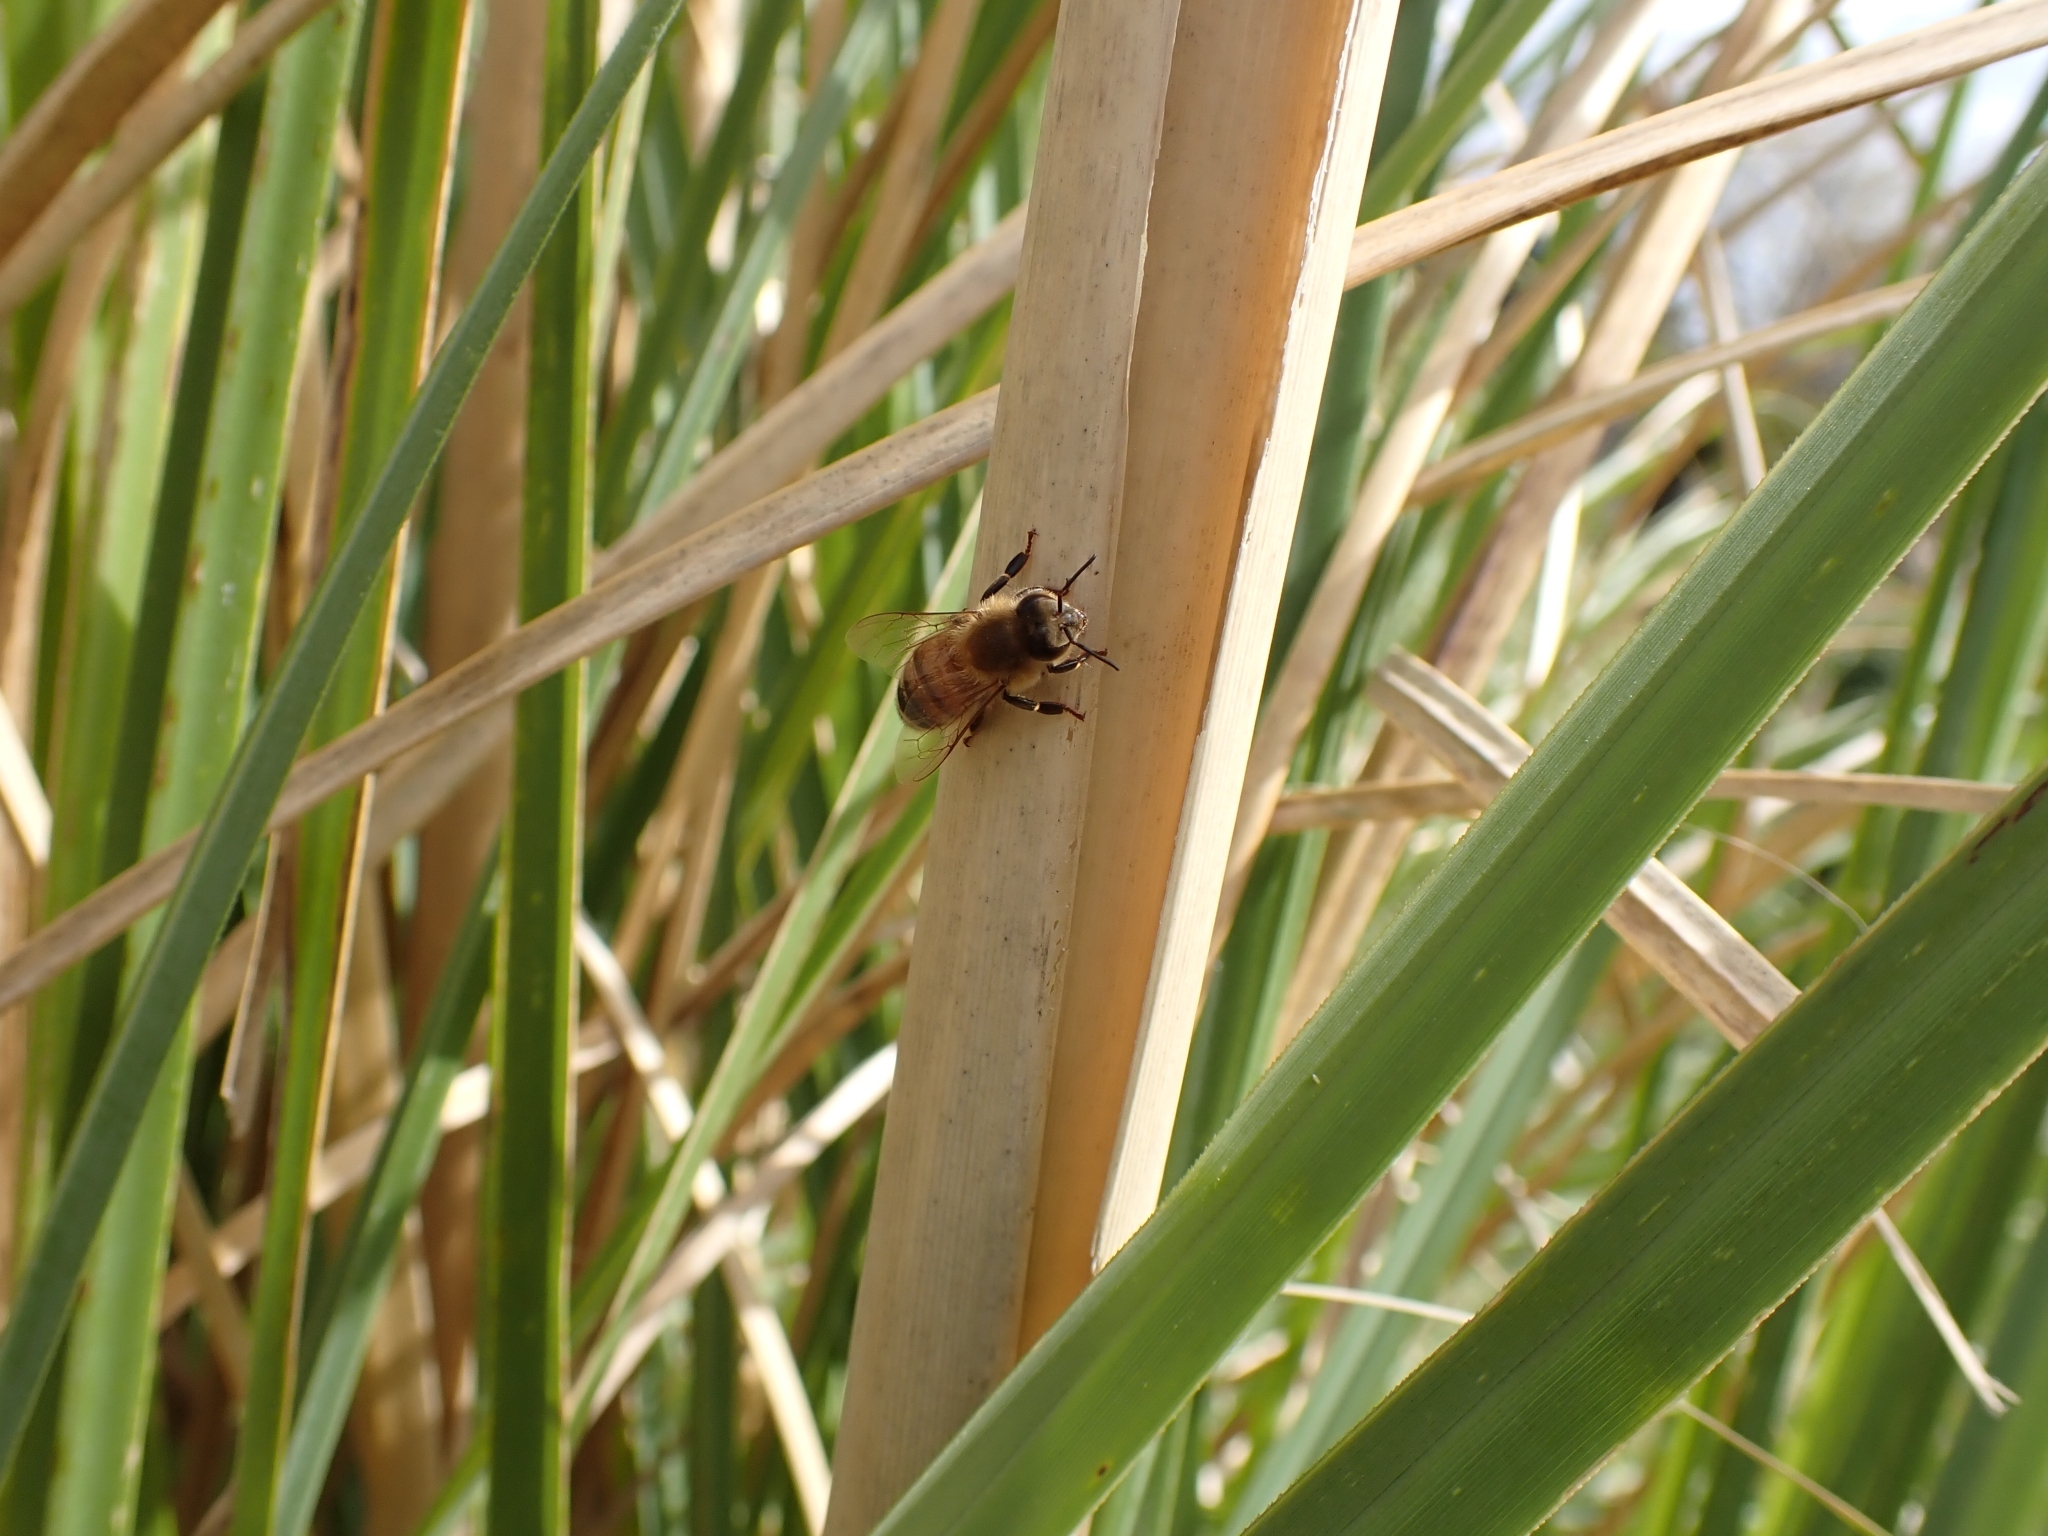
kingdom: Animalia
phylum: Arthropoda
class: Insecta
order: Hymenoptera
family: Apidae
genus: Apis
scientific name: Apis mellifera
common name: Honey bee
